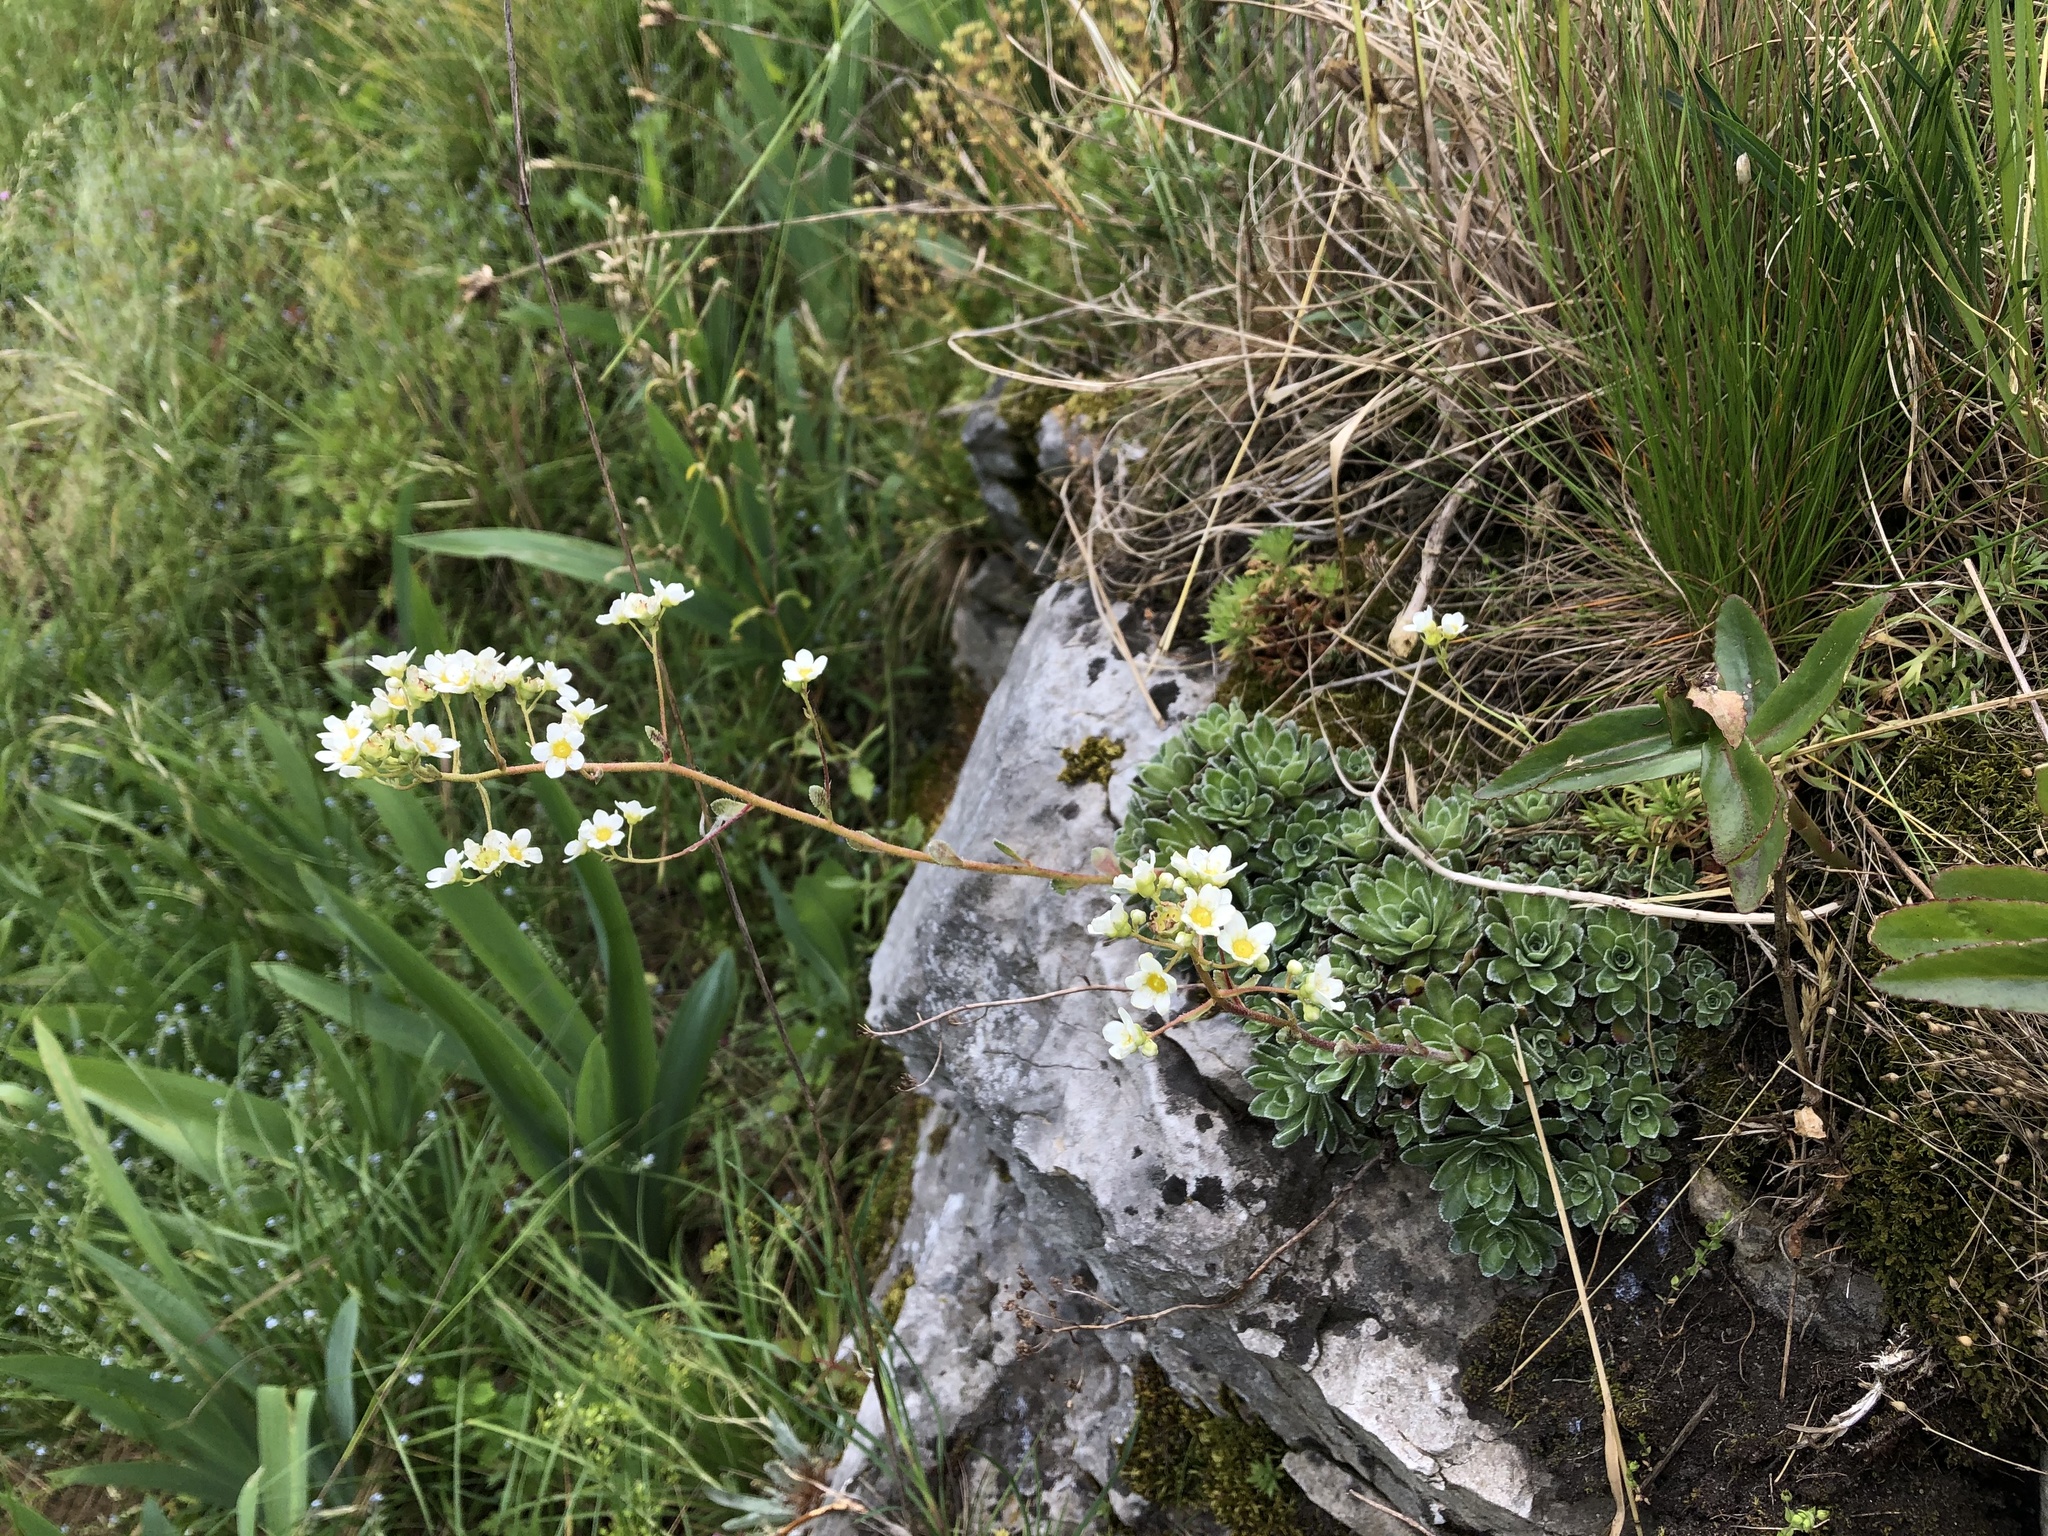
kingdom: Plantae
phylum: Tracheophyta
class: Magnoliopsida
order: Saxifragales
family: Saxifragaceae
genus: Saxifraga
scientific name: Saxifraga paniculata
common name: Livelong saxifrage
